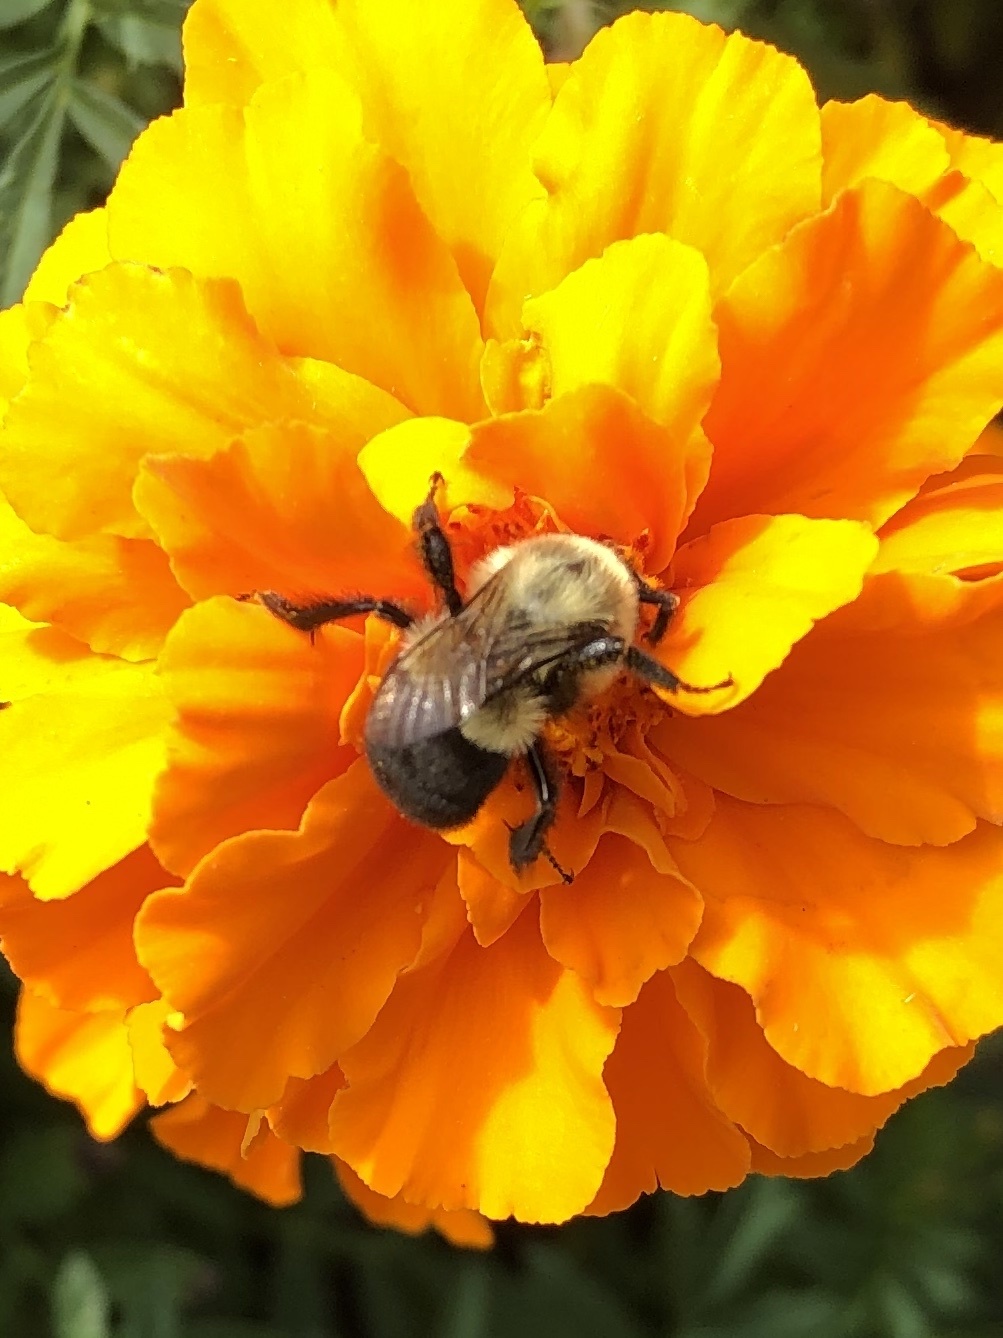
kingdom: Animalia
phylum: Arthropoda
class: Insecta
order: Hymenoptera
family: Apidae
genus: Bombus
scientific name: Bombus impatiens
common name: Common eastern bumble bee
